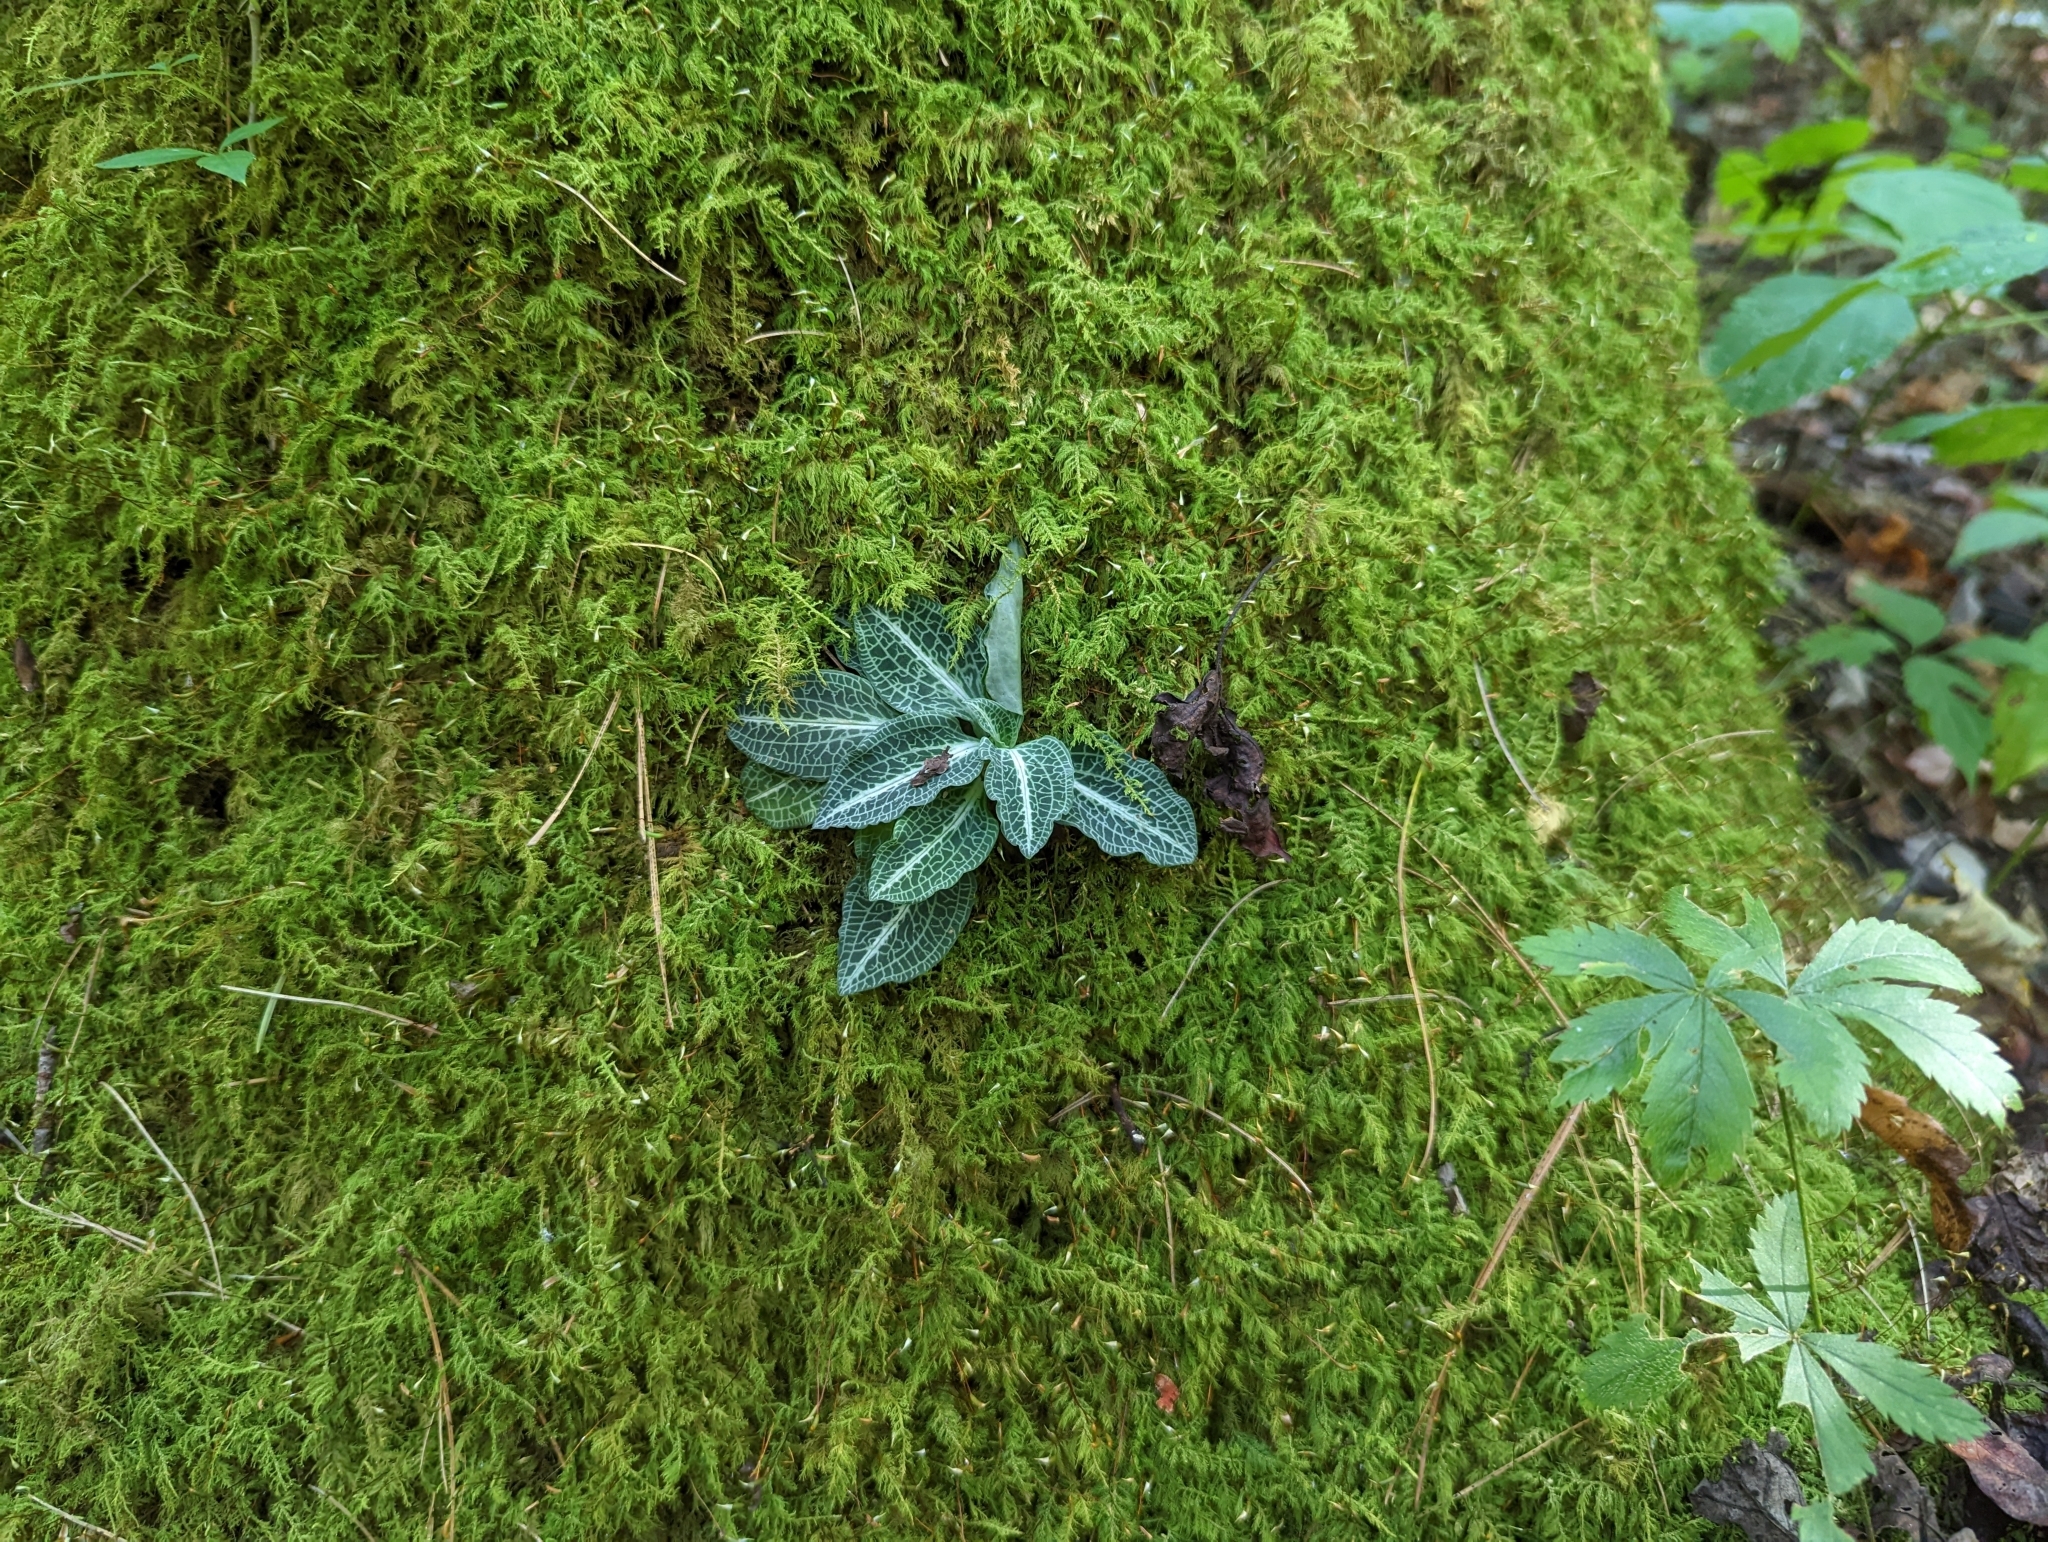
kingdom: Plantae
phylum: Tracheophyta
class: Liliopsida
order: Asparagales
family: Orchidaceae
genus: Goodyera
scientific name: Goodyera pubescens
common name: Downy rattlesnake-plantain
